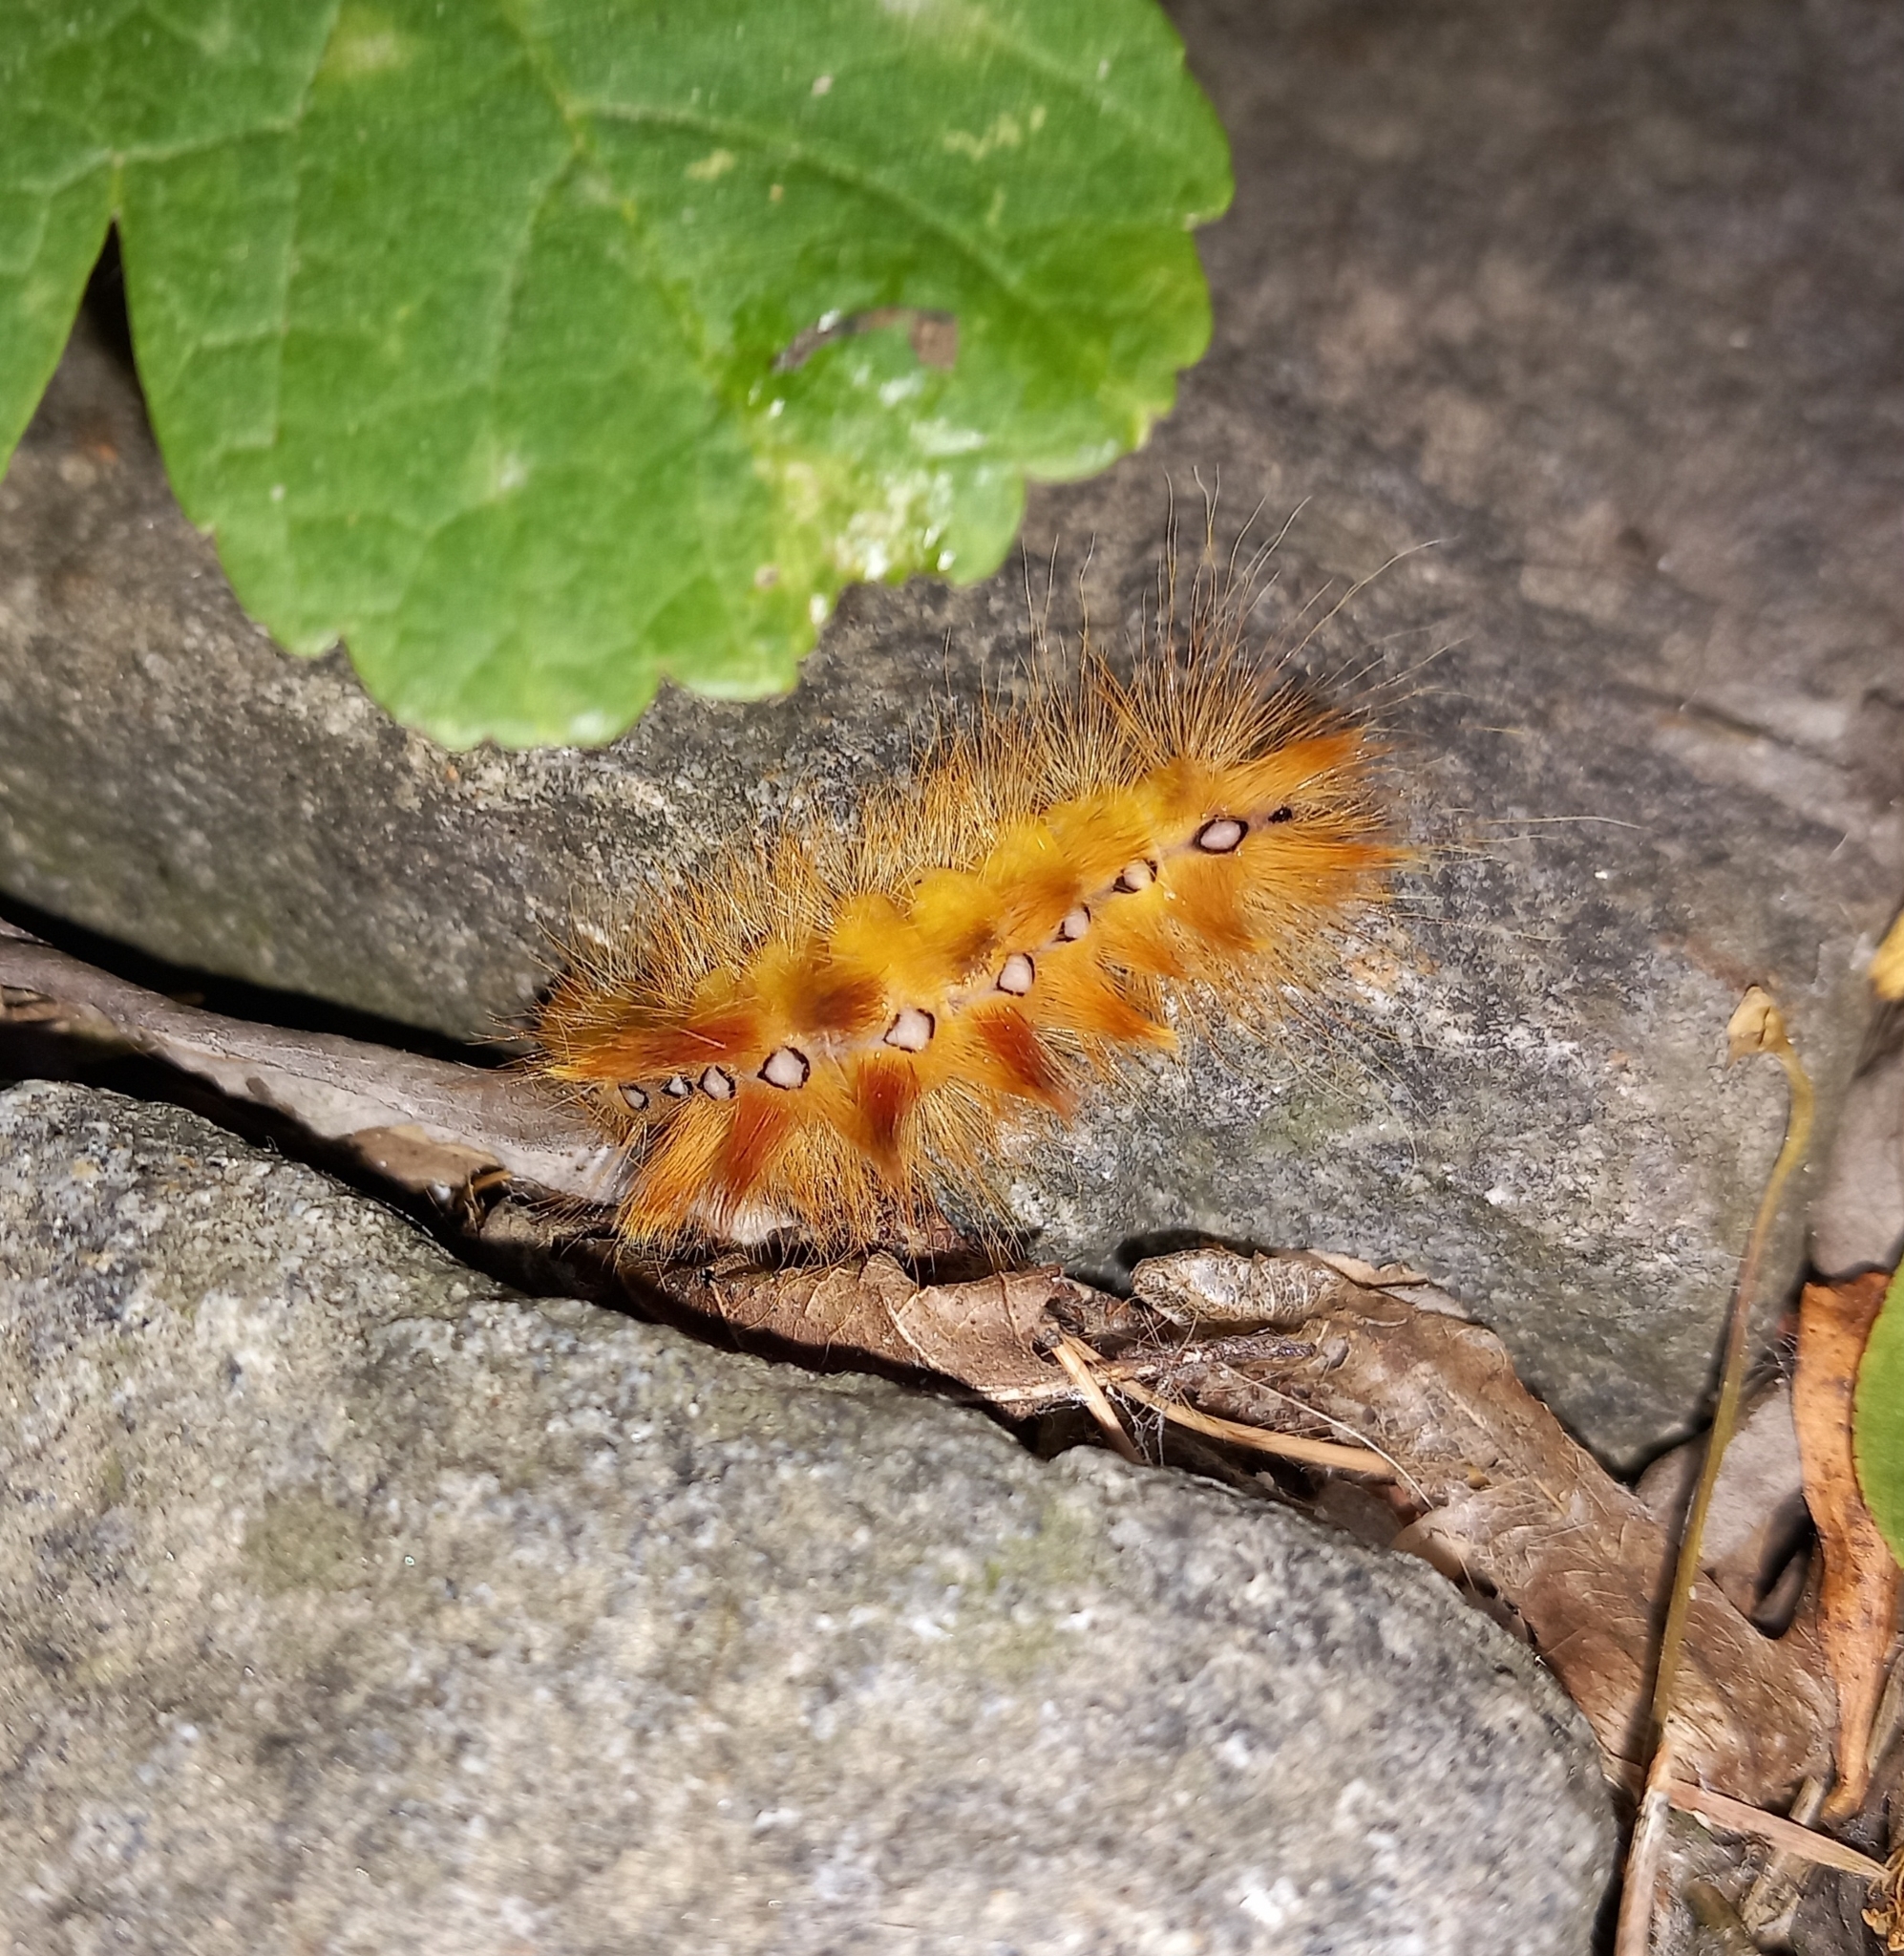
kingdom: Animalia
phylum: Arthropoda
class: Insecta
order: Lepidoptera
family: Noctuidae
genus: Acronicta
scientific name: Acronicta aceris
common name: Sycamore
